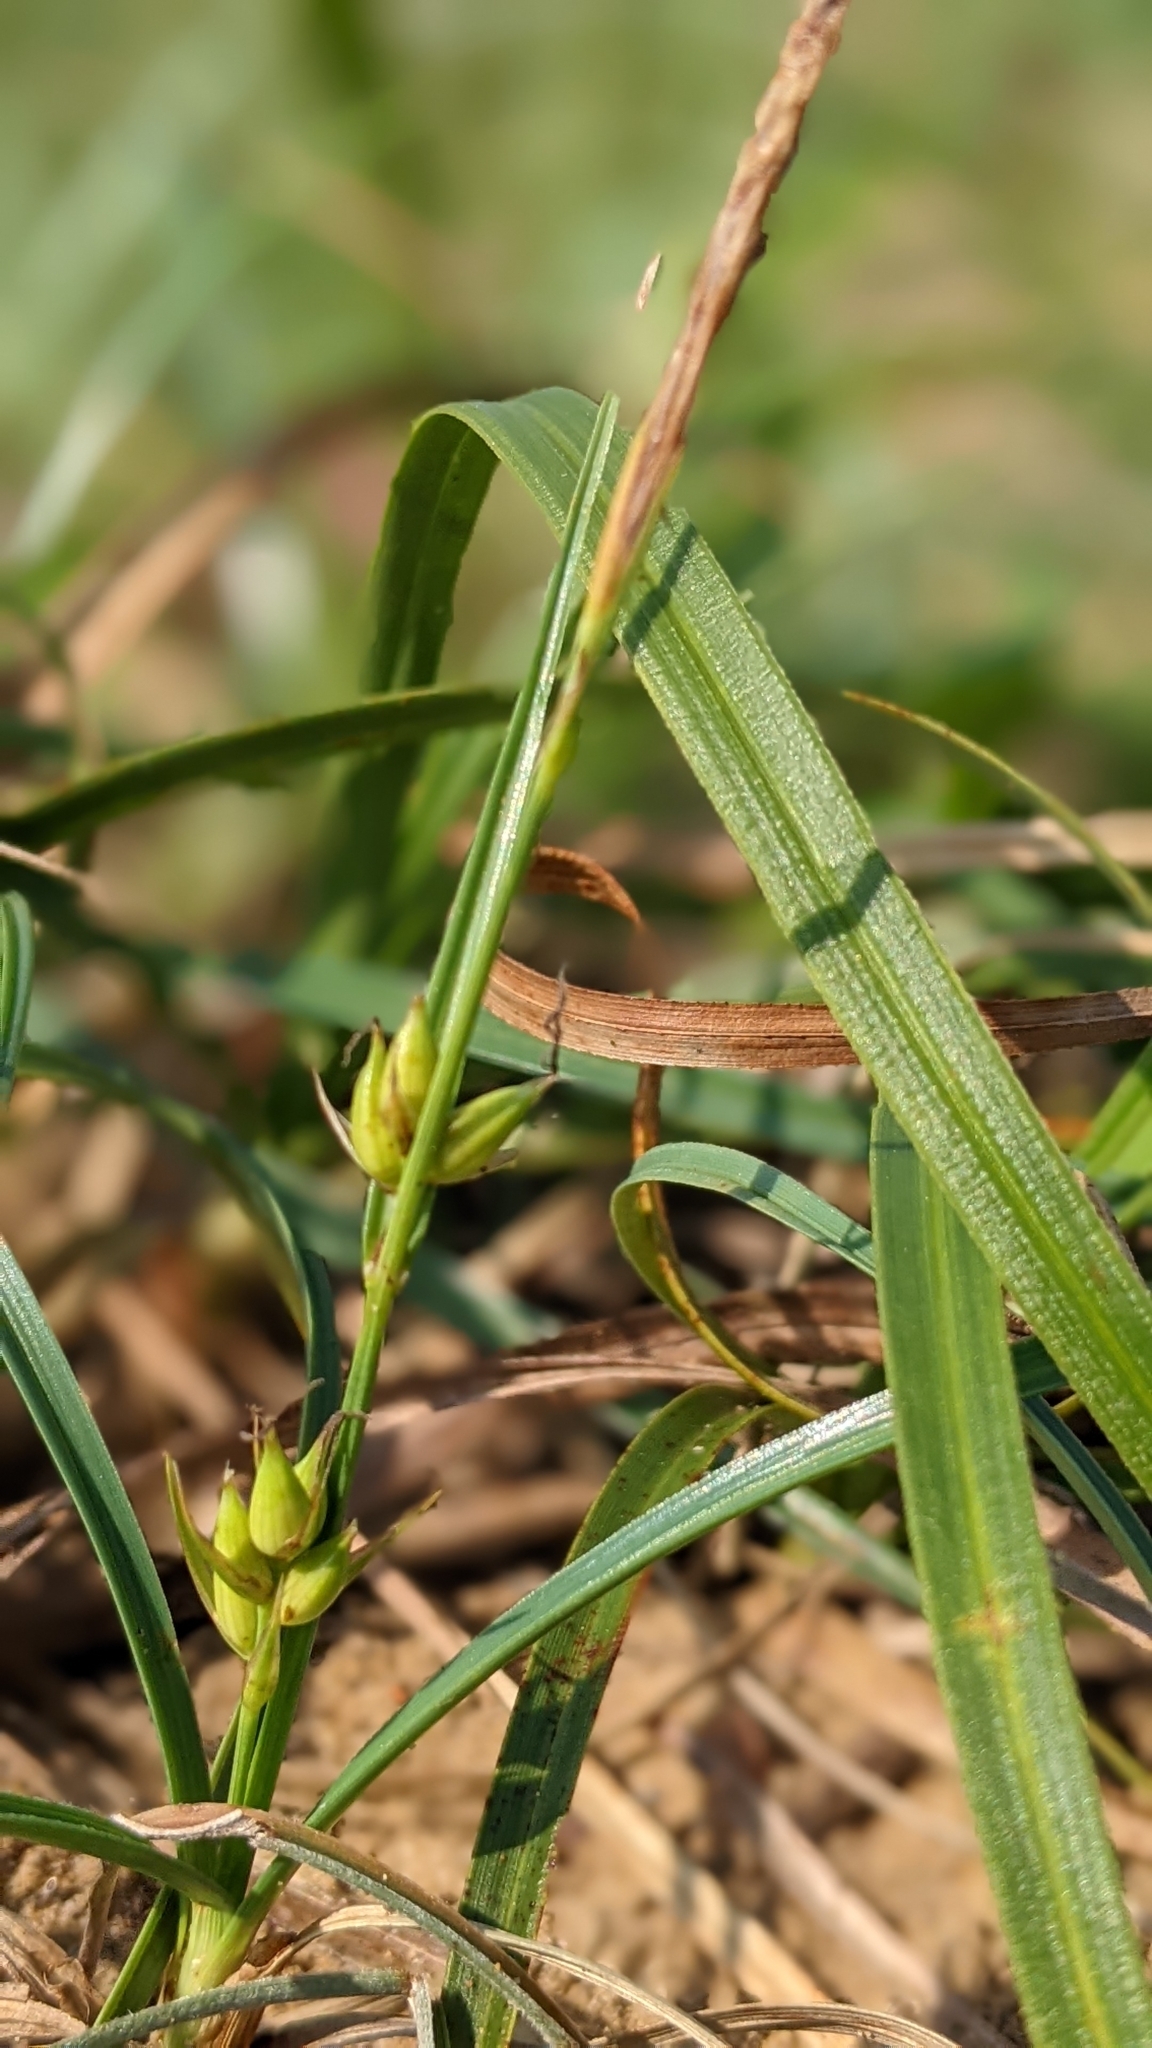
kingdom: Plantae
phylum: Tracheophyta
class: Liliopsida
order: Poales
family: Cyperaceae
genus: Carex
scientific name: Carex pumila
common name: Dwarf sedge
